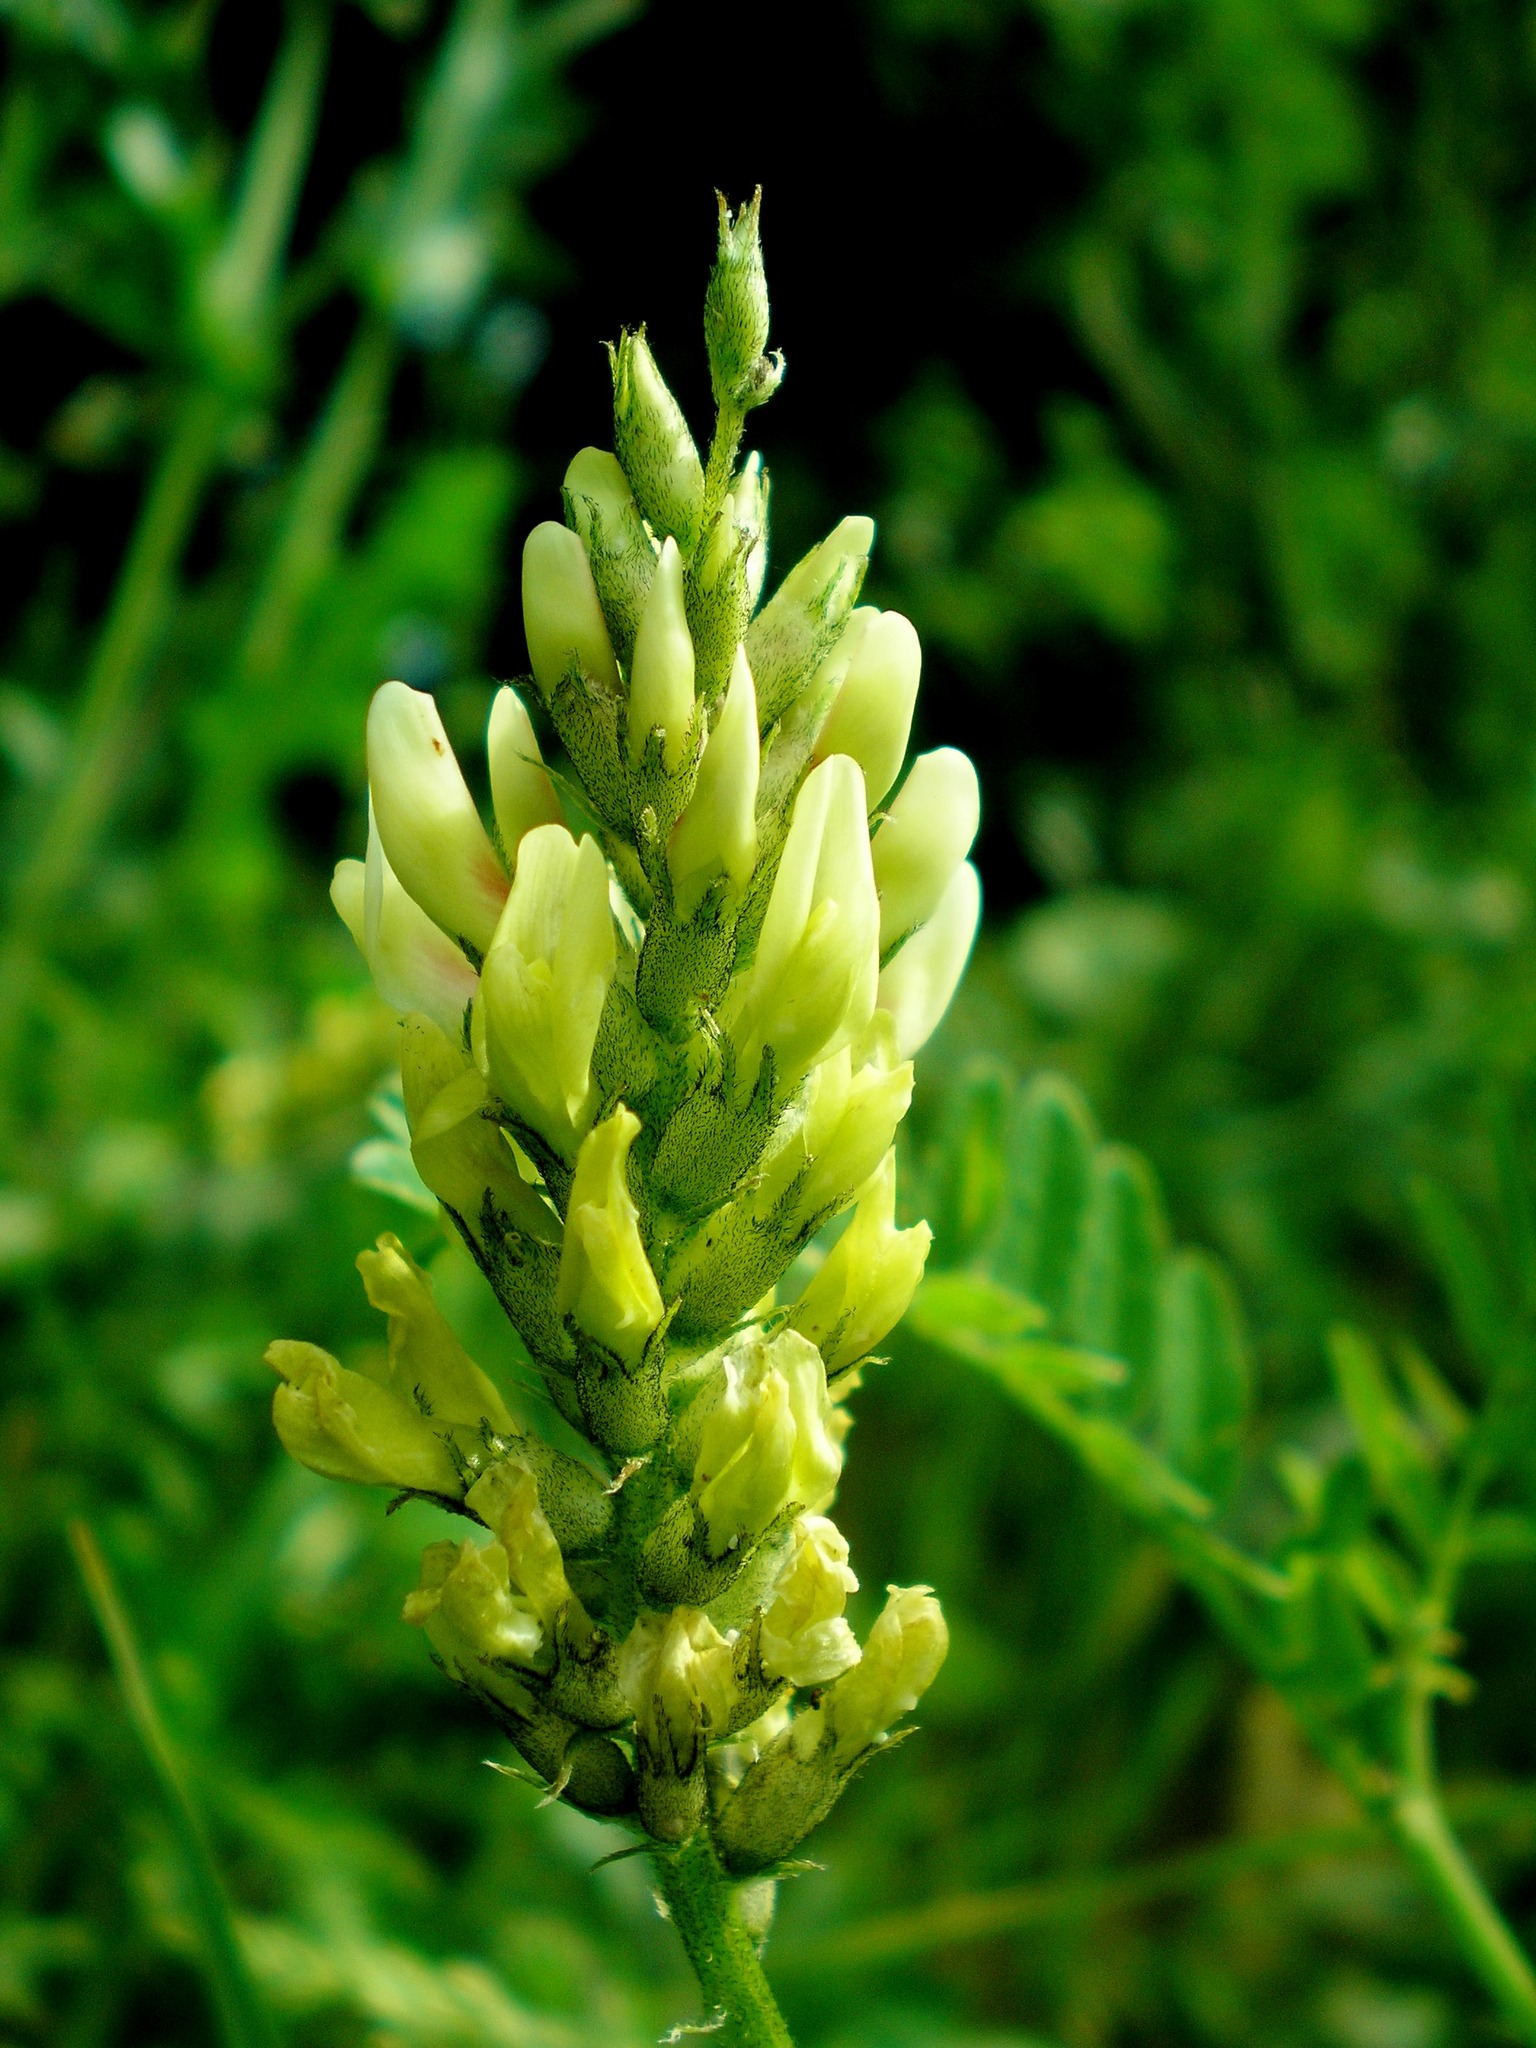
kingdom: Plantae
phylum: Tracheophyta
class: Magnoliopsida
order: Fabales
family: Fabaceae
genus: Astragalus
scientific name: Astragalus cicer
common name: Chick-pea milk-vetch
